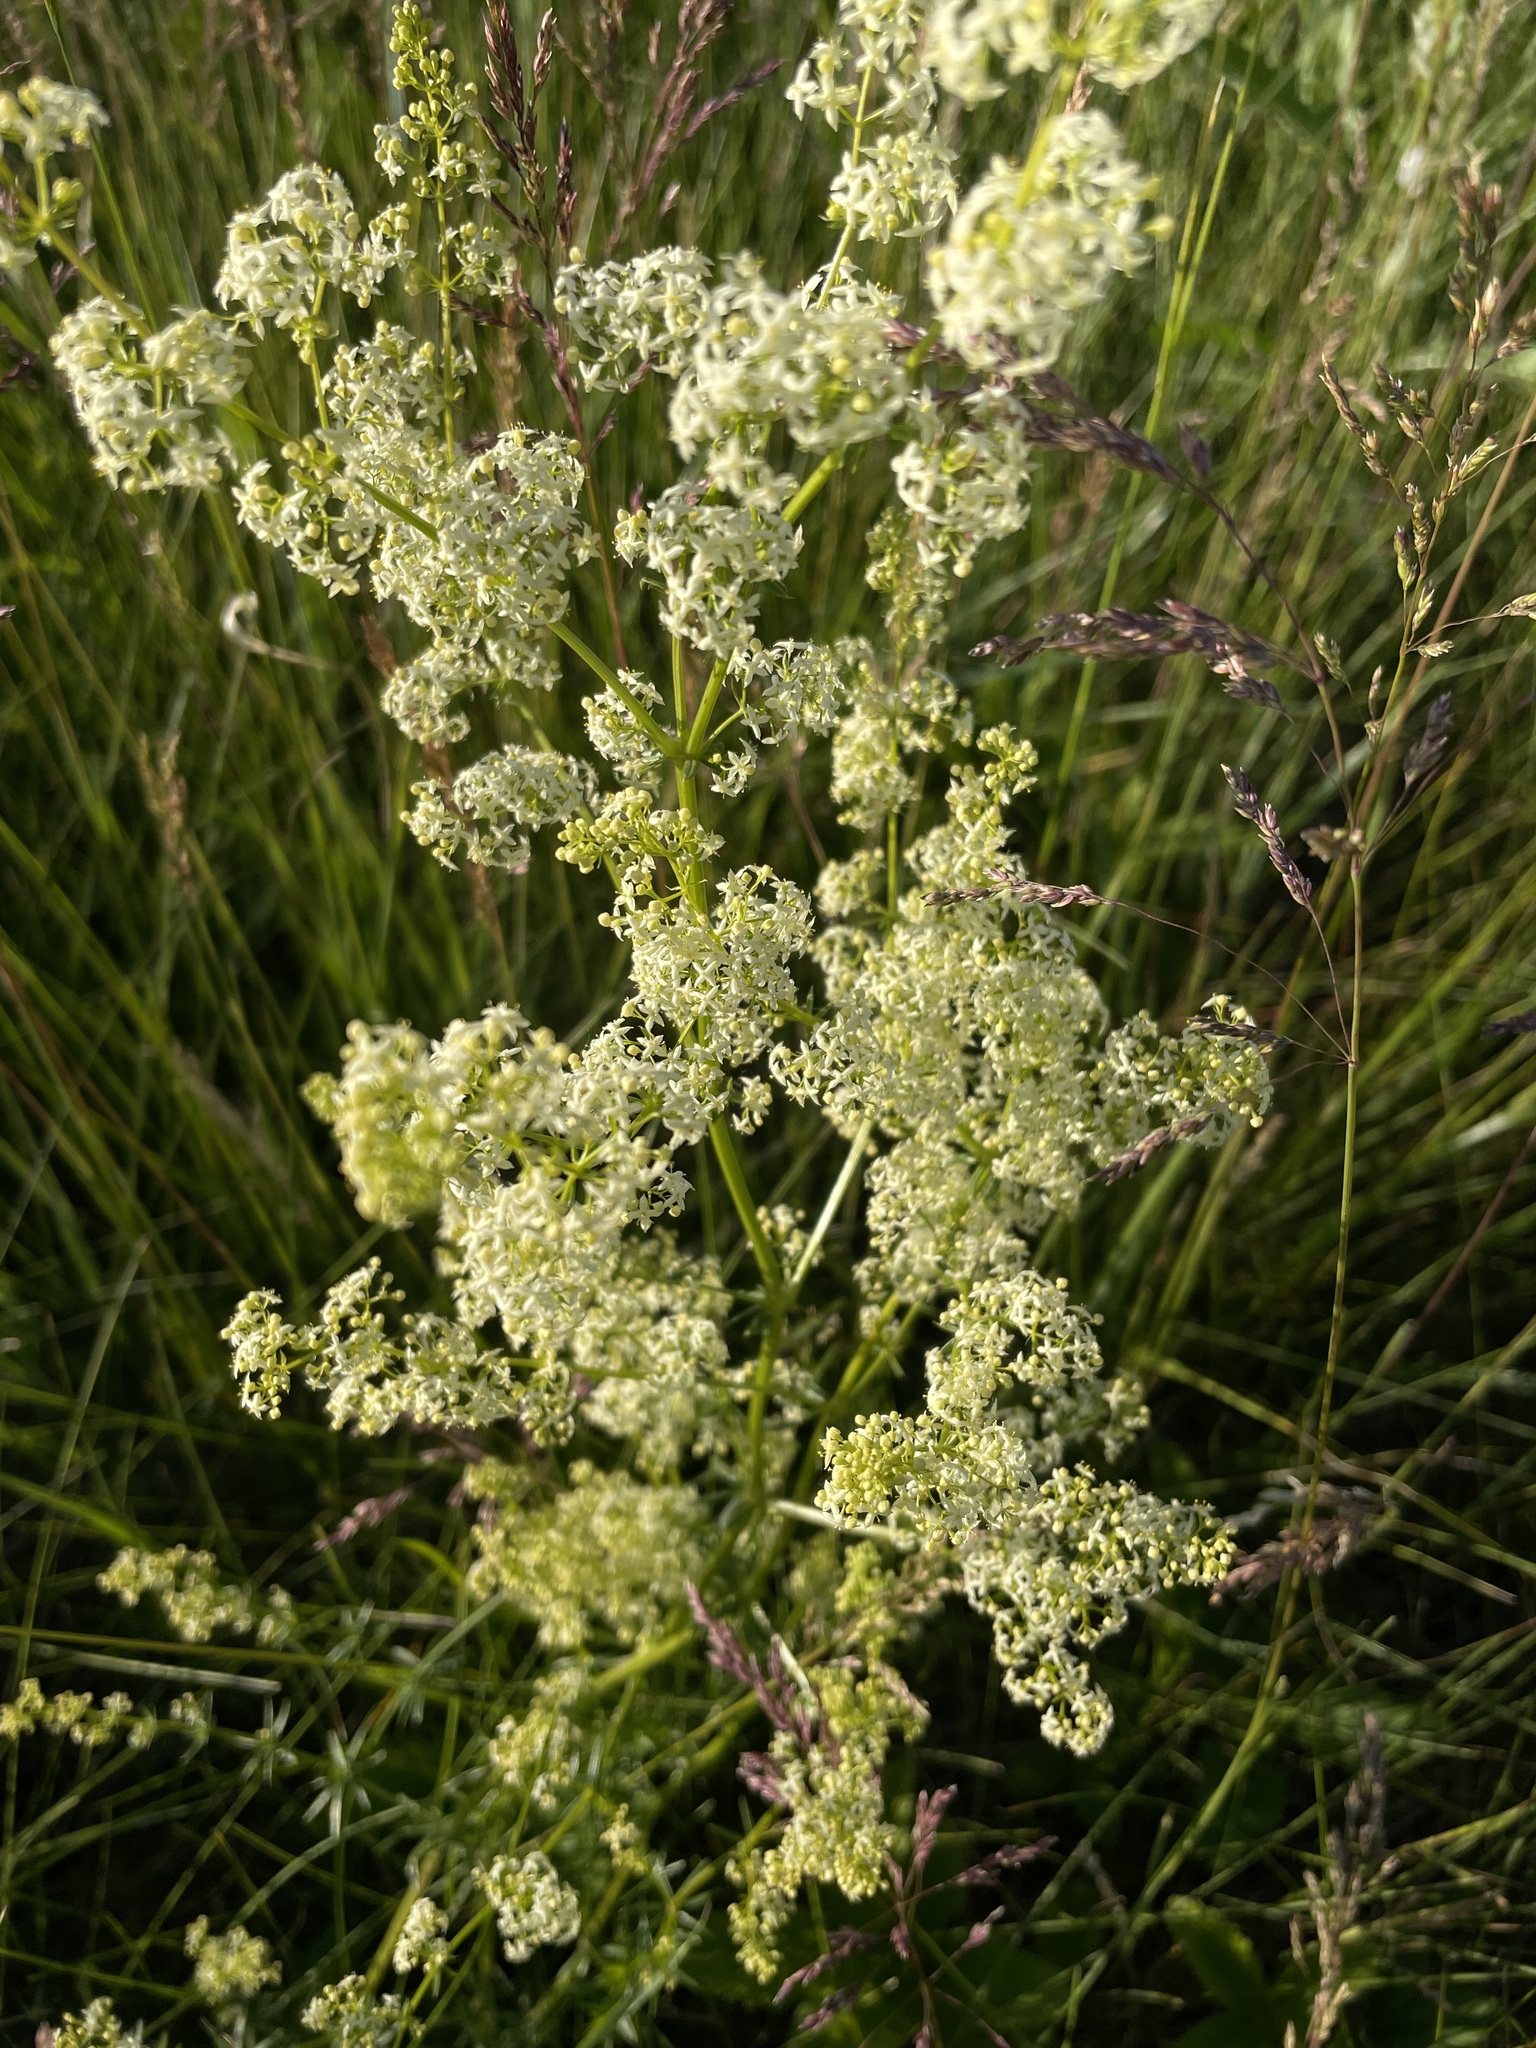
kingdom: Plantae
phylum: Tracheophyta
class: Magnoliopsida
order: Gentianales
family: Rubiaceae
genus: Galium
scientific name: Galium mollugo
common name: Hedge bedstraw
